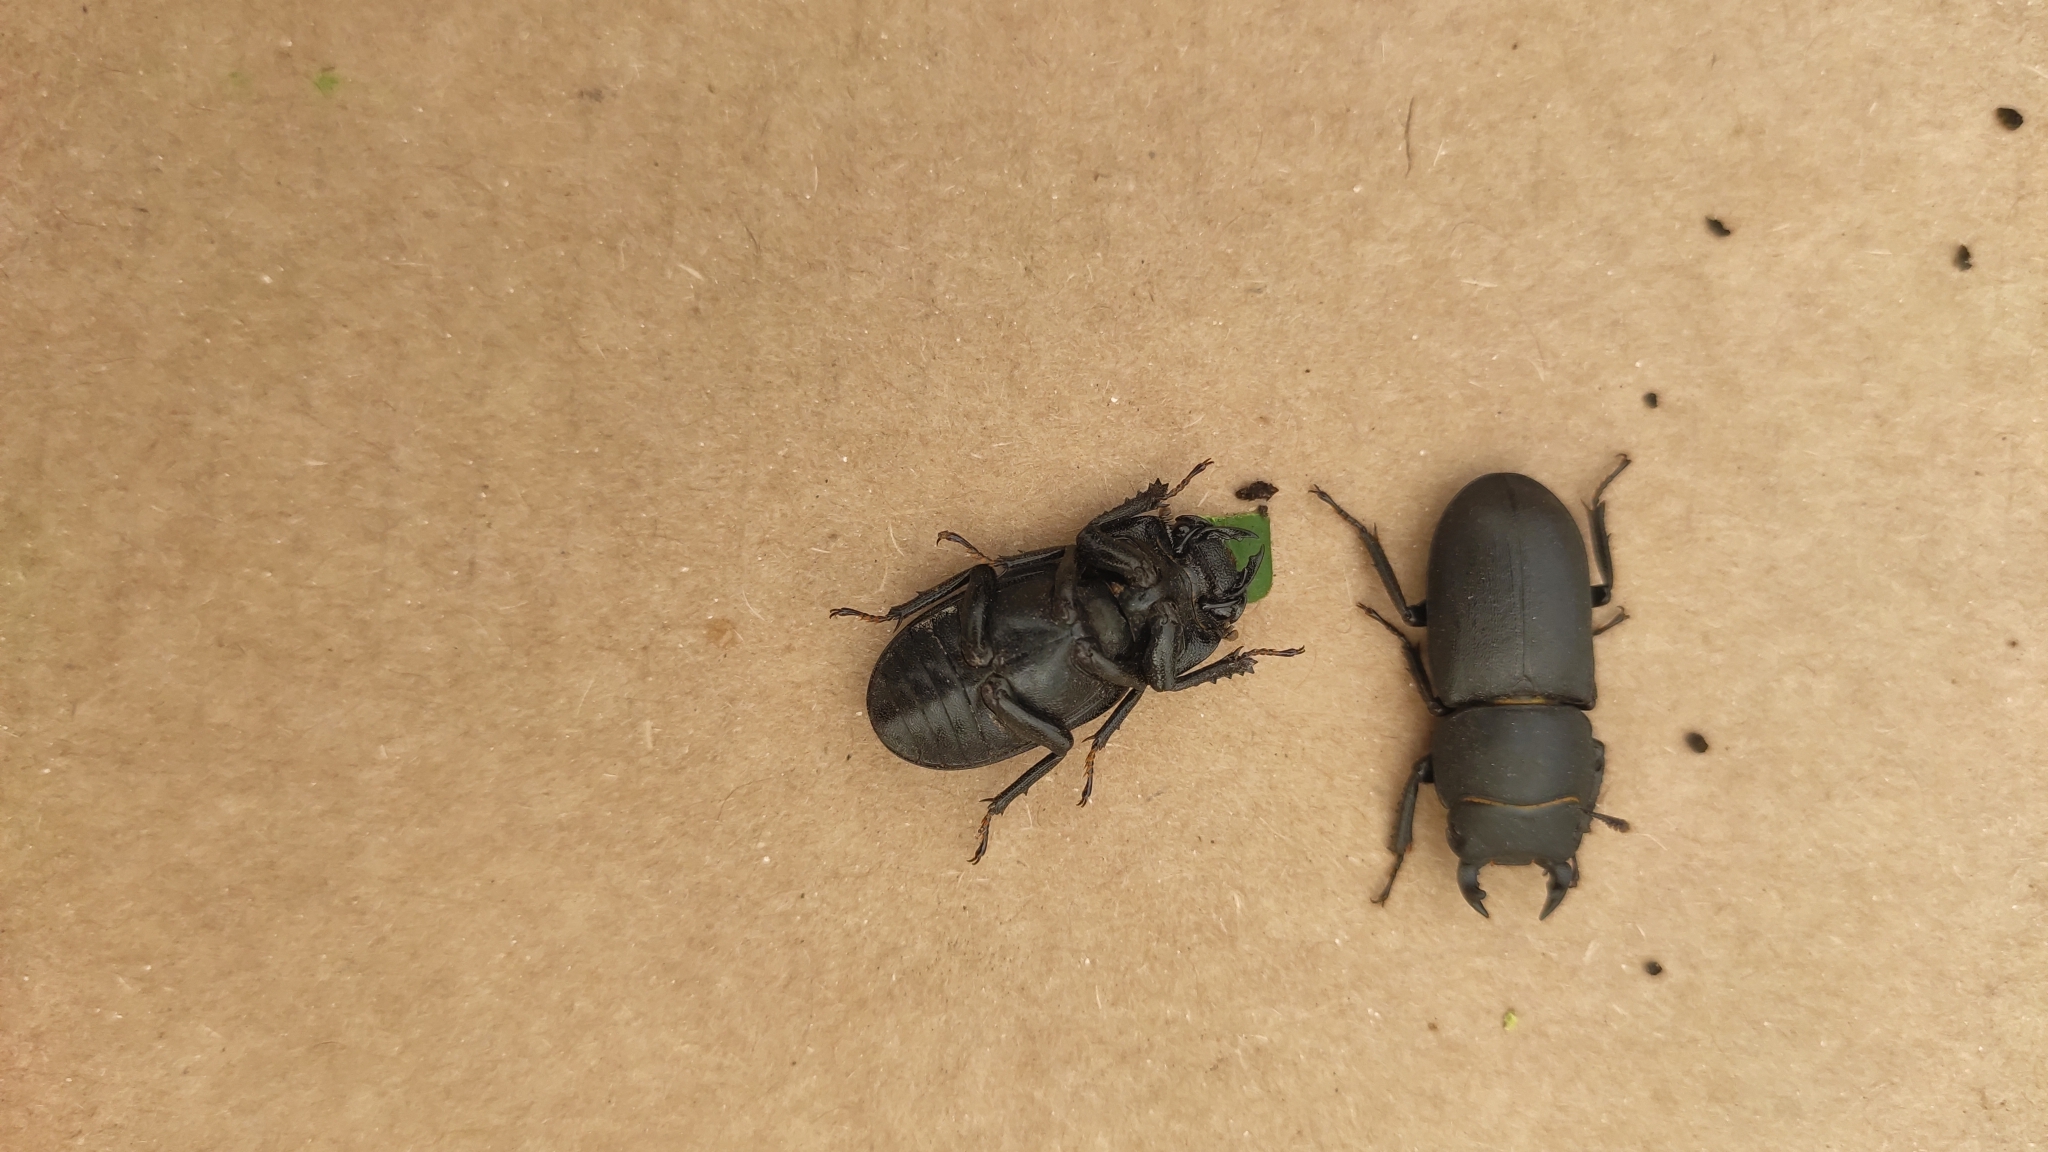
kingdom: Animalia
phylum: Arthropoda
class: Insecta
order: Coleoptera
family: Lucanidae
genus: Dorcus
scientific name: Dorcus parallelipipedus
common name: Lesser stag beetle
